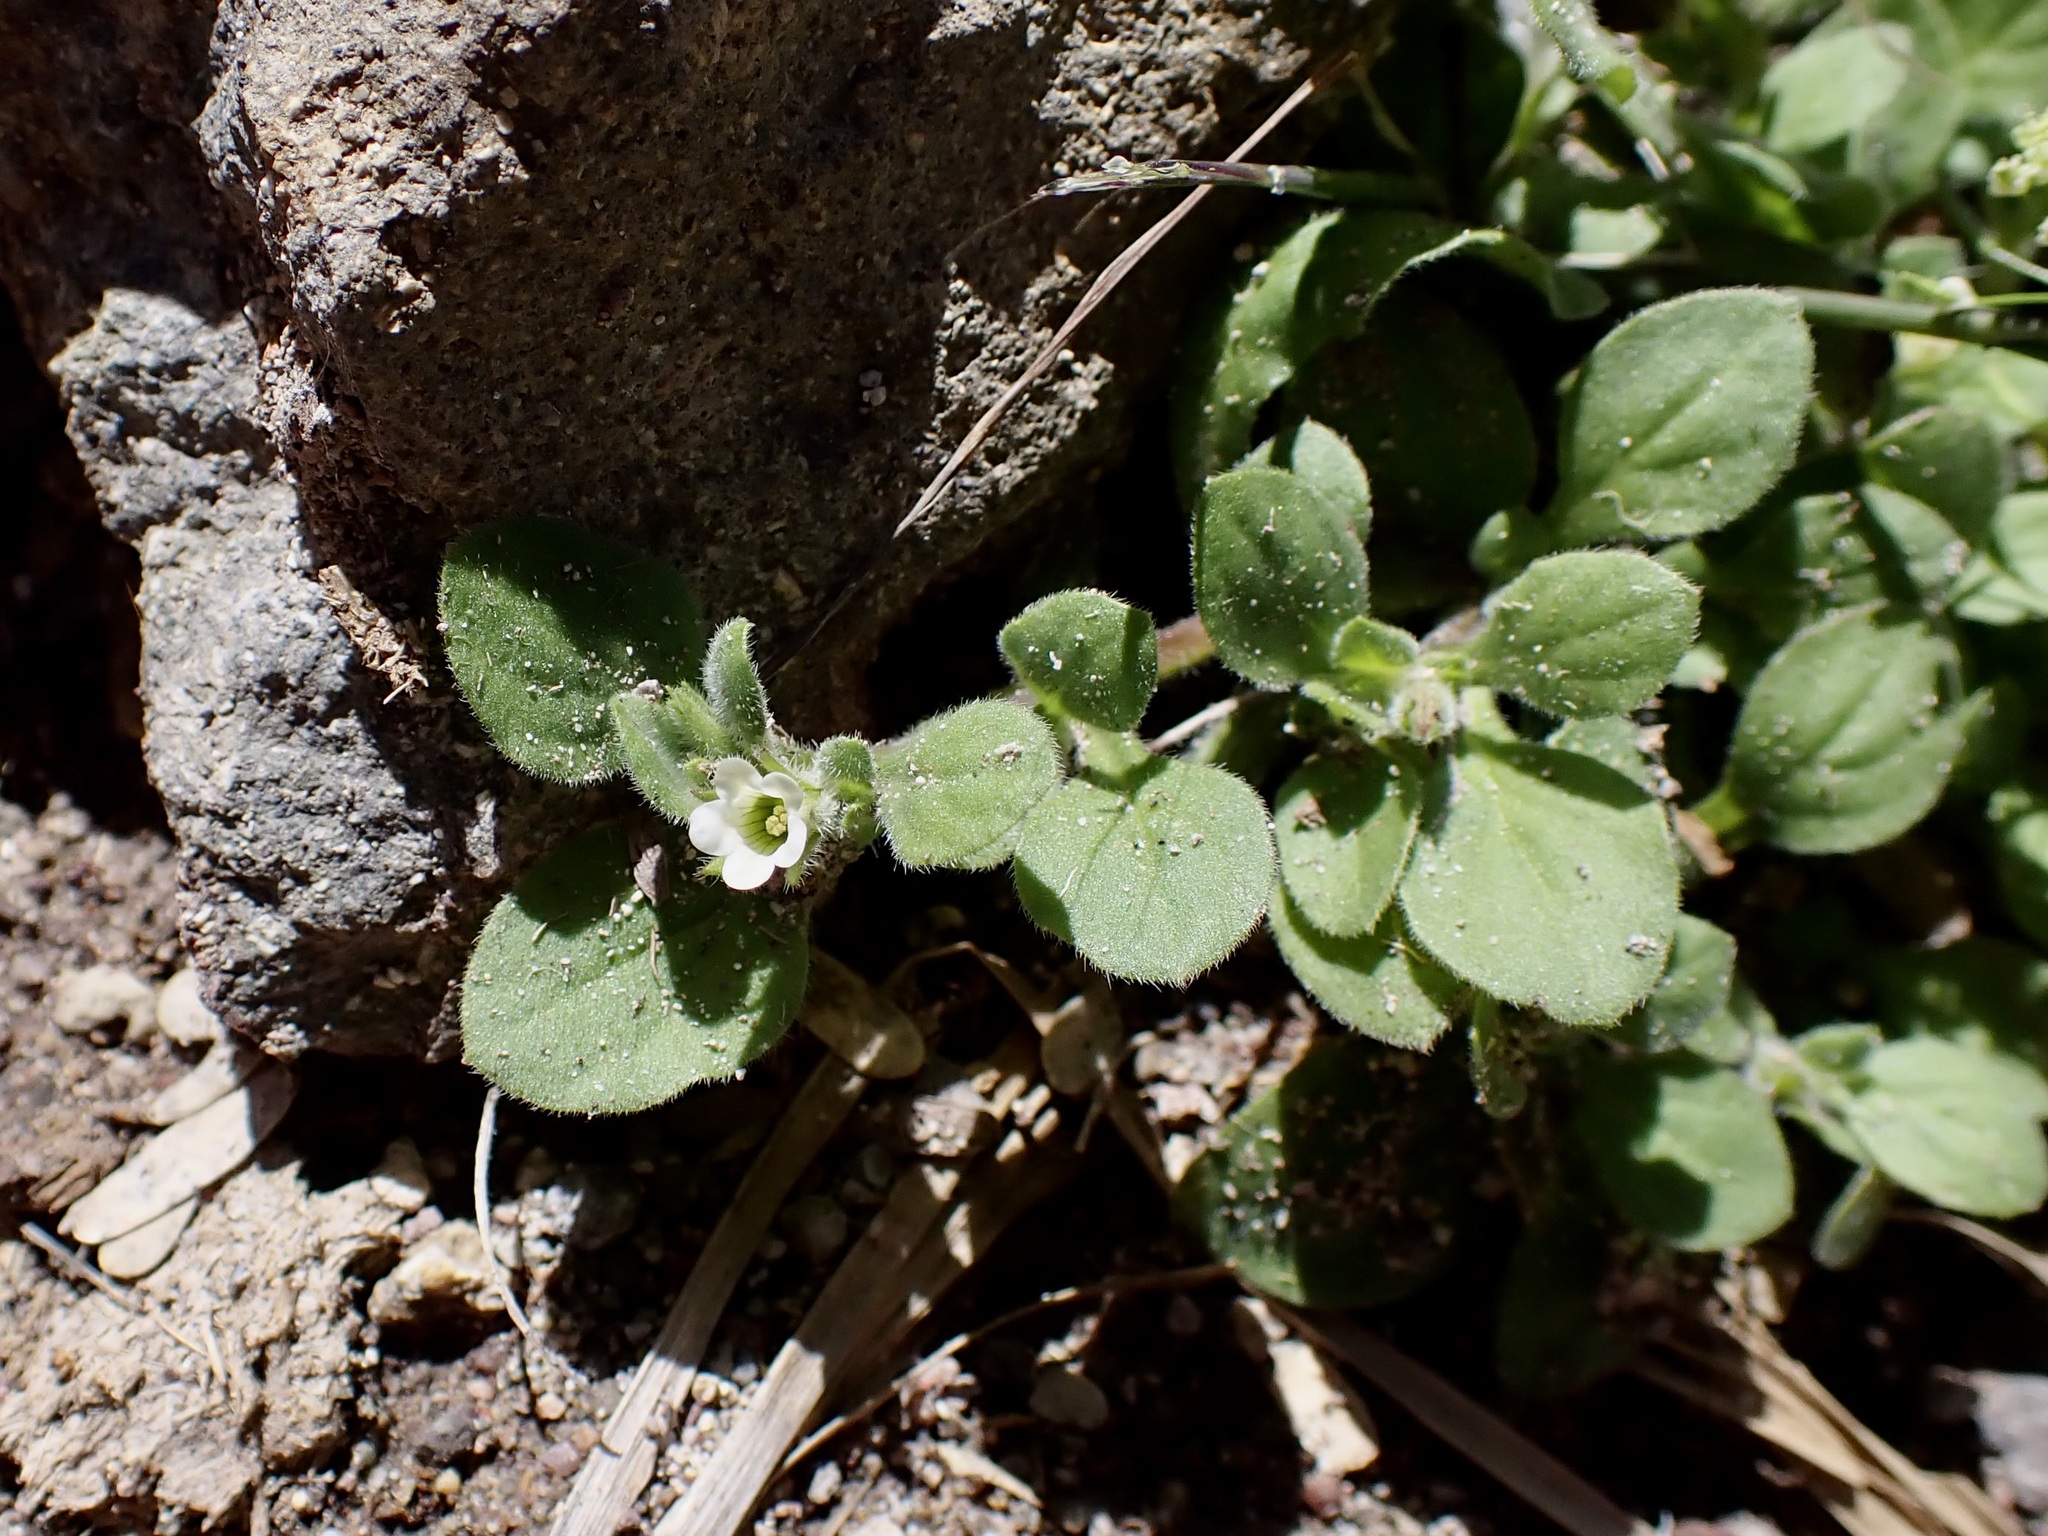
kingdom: Plantae
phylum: Tracheophyta
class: Magnoliopsida
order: Boraginales
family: Namaceae
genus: Nama
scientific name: Nama jamaicensis
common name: Jamaicanweed
